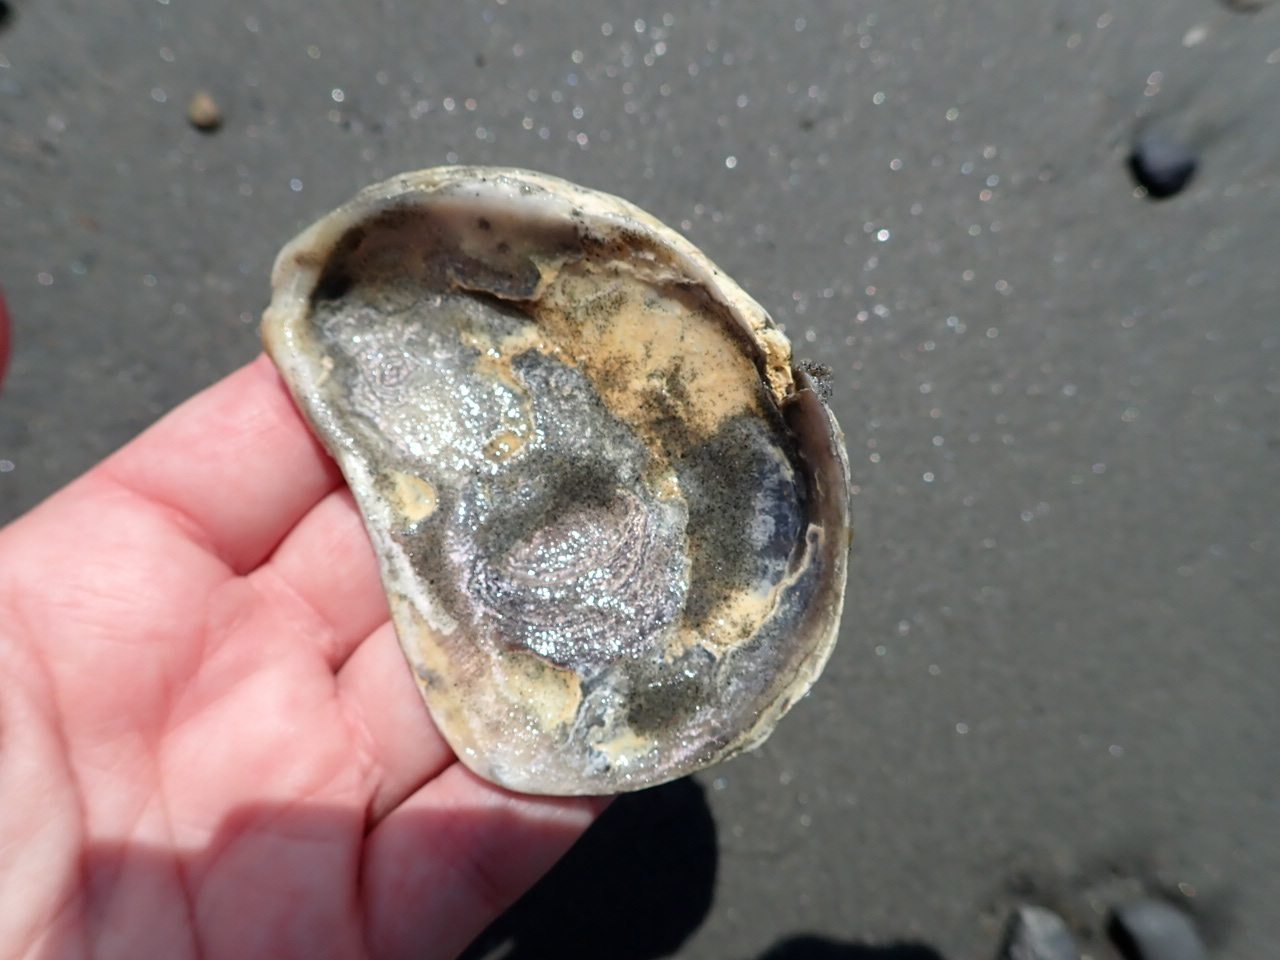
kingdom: Animalia
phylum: Mollusca
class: Bivalvia
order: Ostreida
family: Ostreidae
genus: Crassostrea
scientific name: Crassostrea virginica
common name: American oyster
